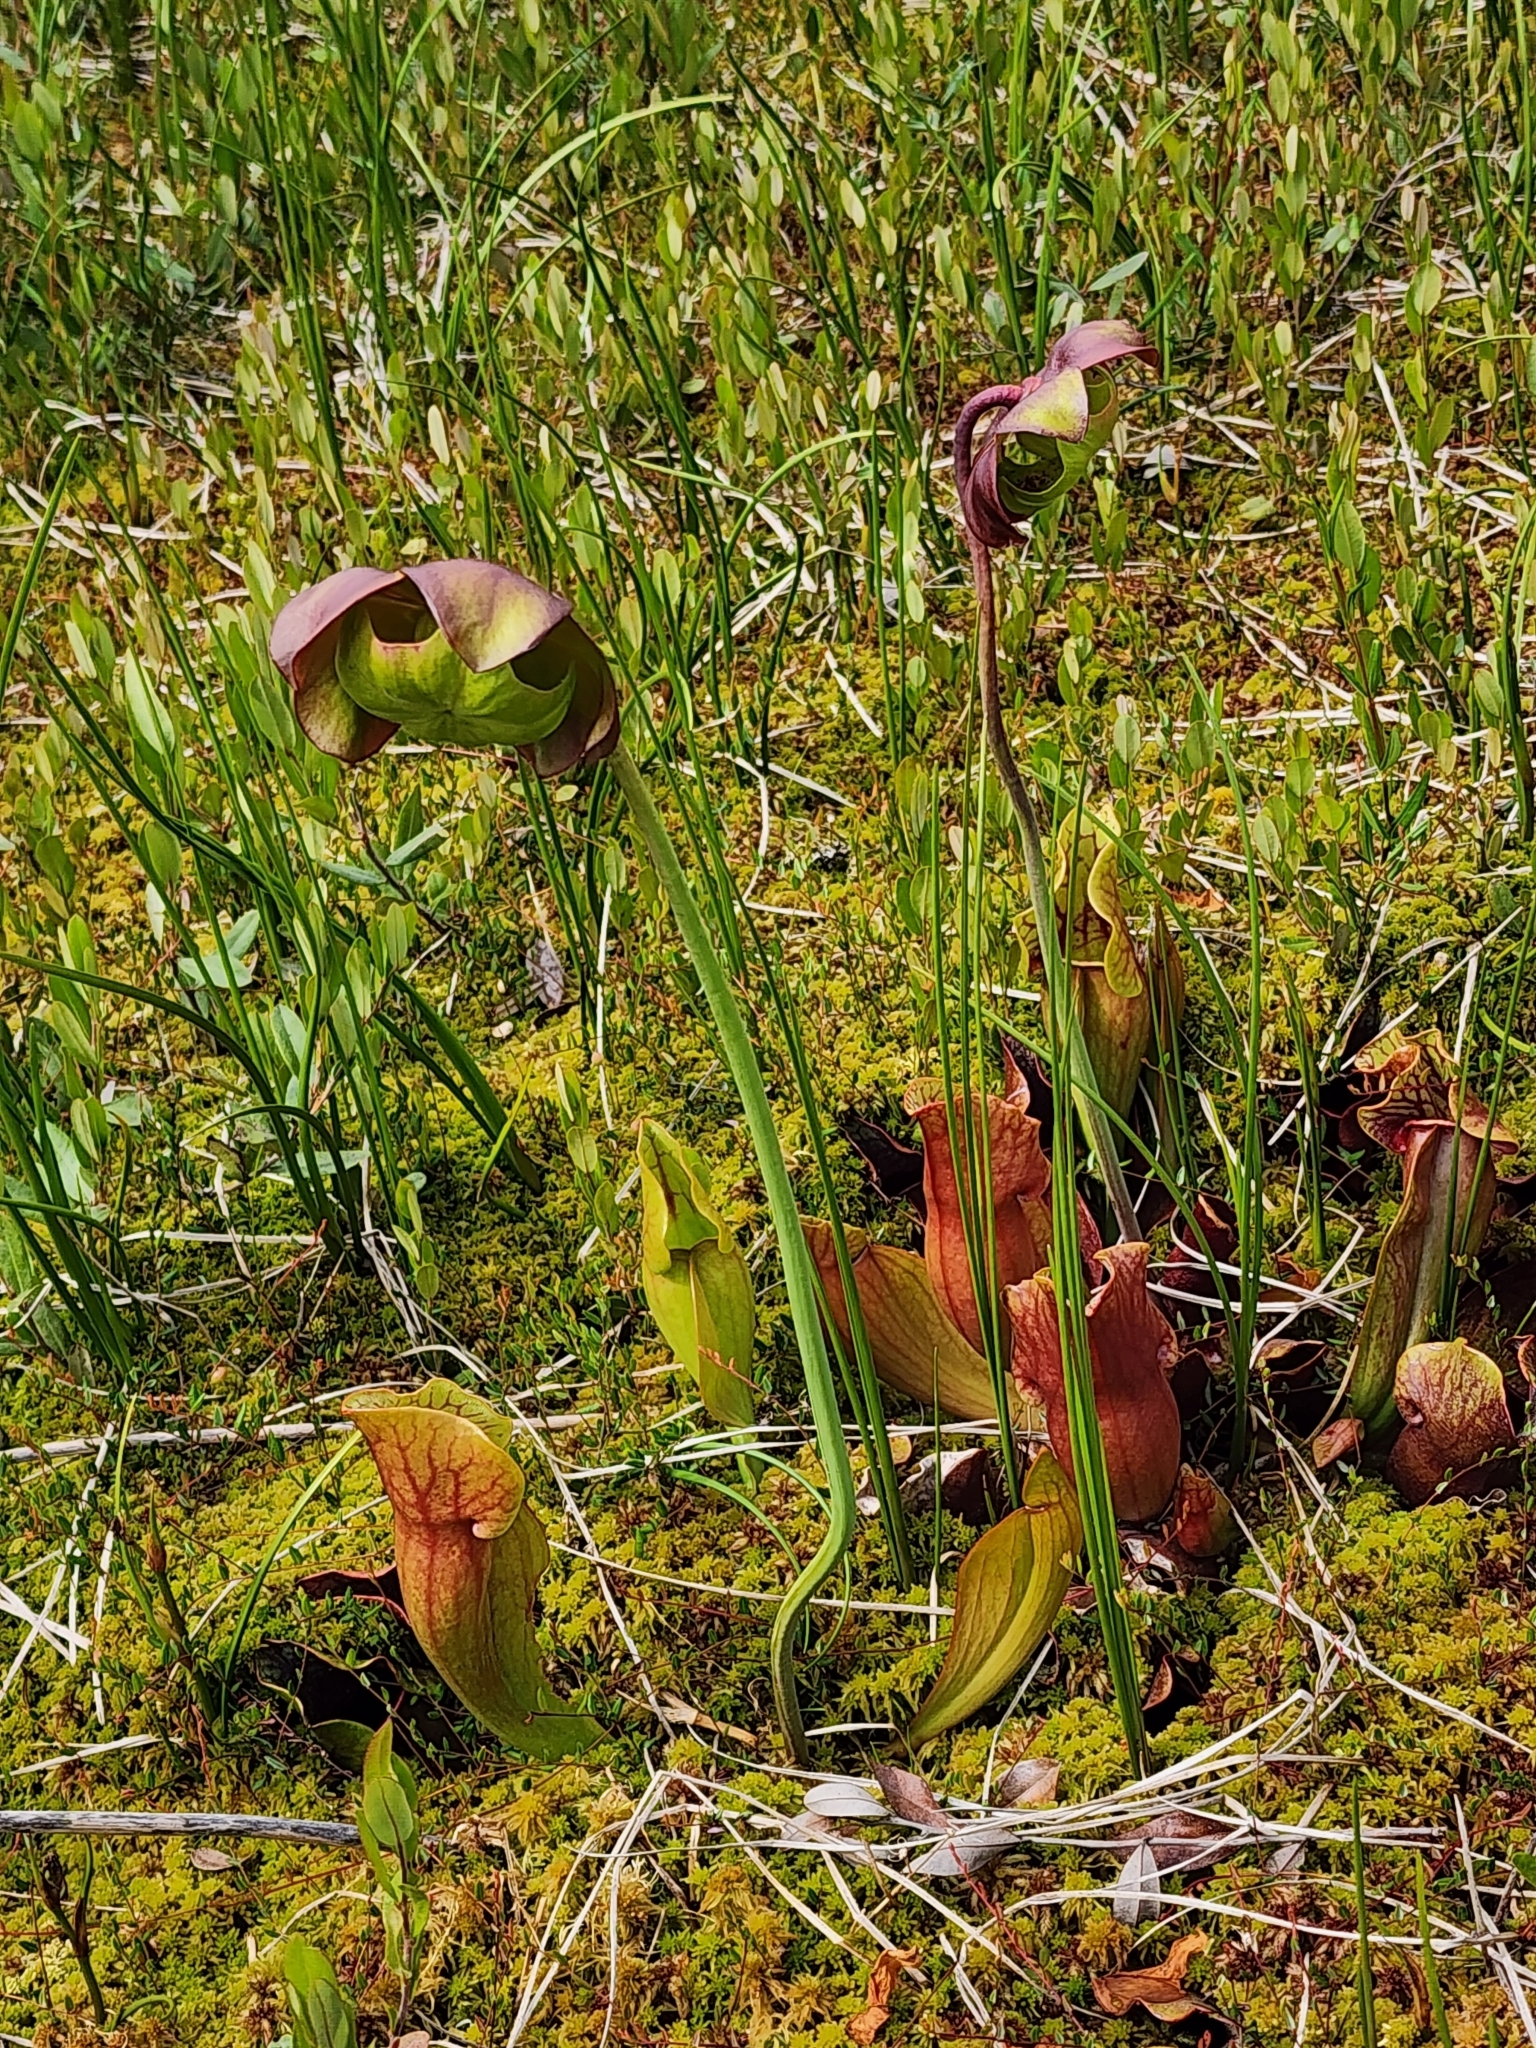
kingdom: Plantae
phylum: Tracheophyta
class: Magnoliopsida
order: Ericales
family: Sarraceniaceae
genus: Sarracenia
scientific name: Sarracenia purpurea
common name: Pitcherplant
